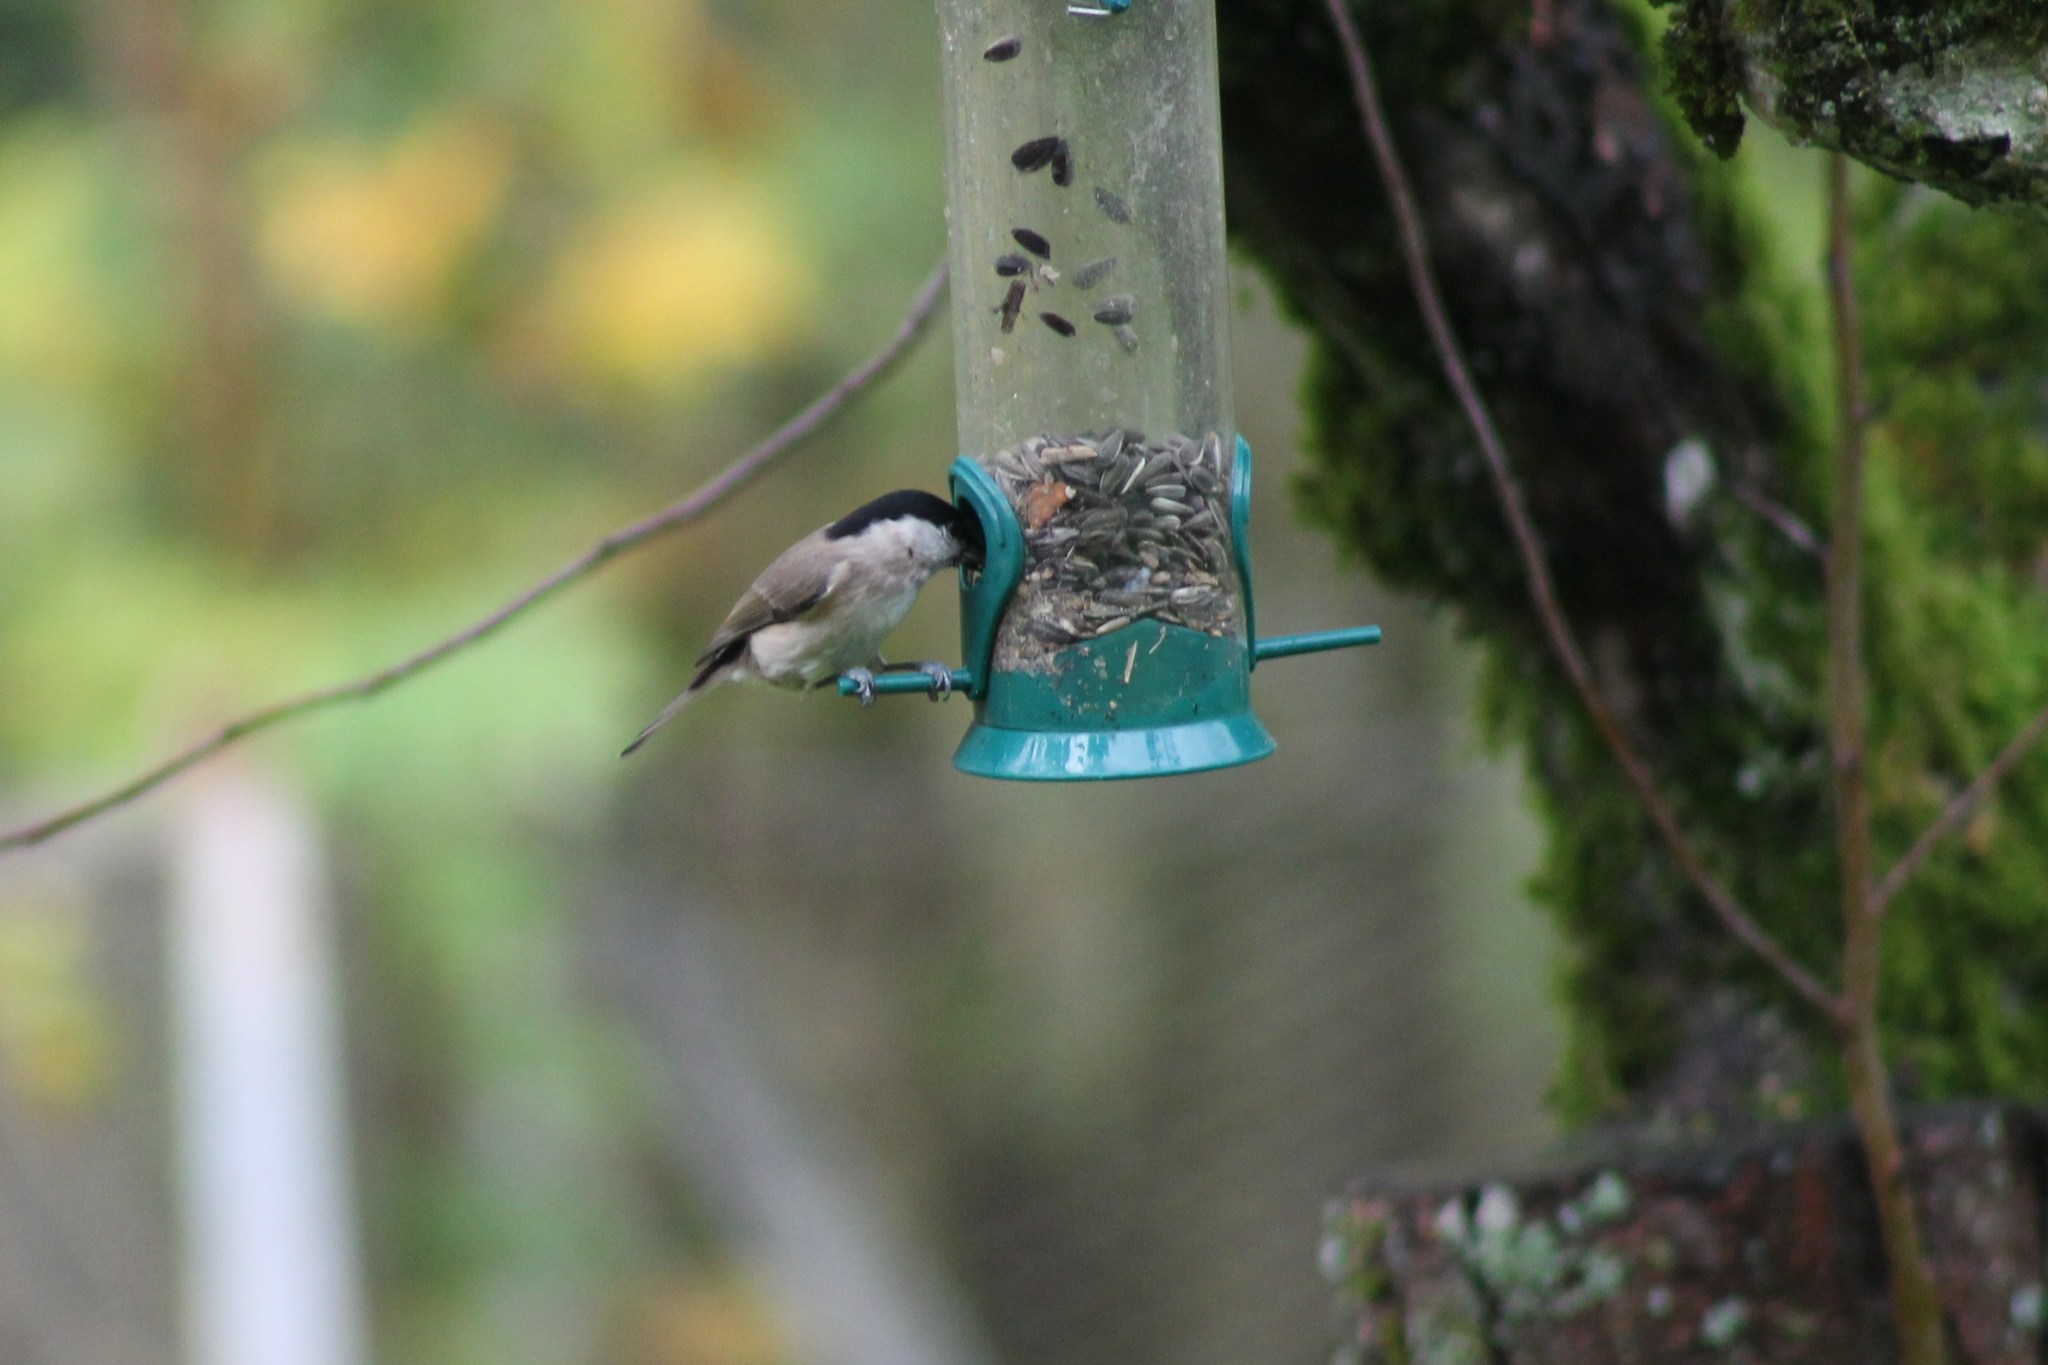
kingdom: Animalia
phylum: Chordata
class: Aves
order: Passeriformes
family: Paridae
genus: Poecile
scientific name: Poecile palustris
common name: Marsh tit
